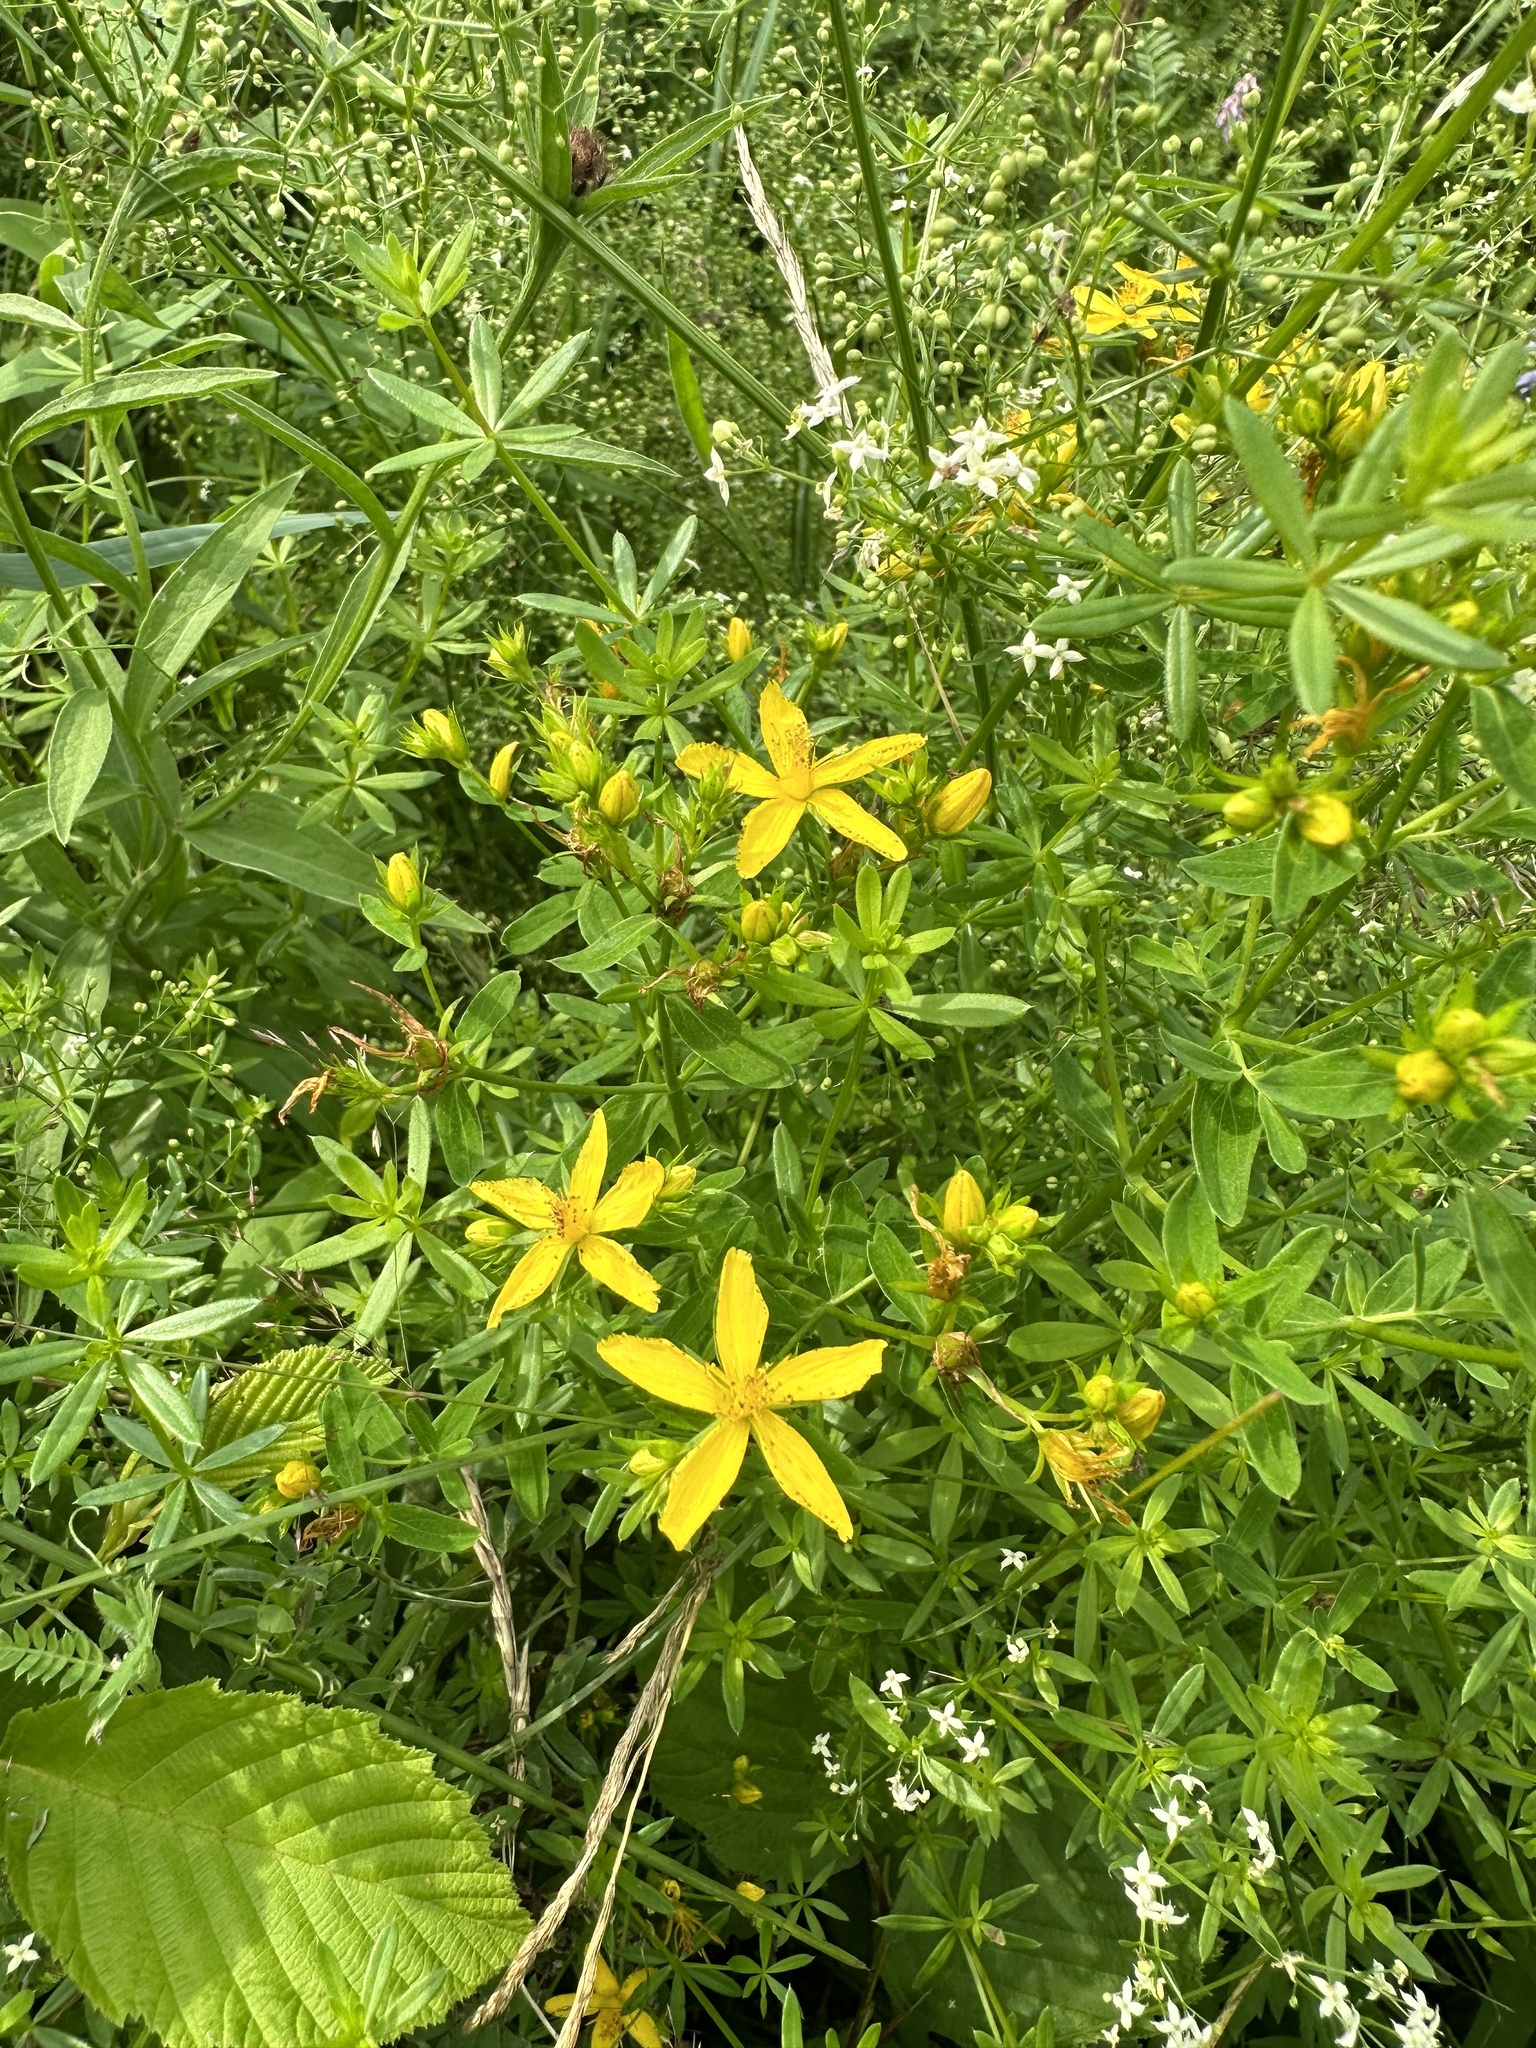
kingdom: Plantae
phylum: Tracheophyta
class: Magnoliopsida
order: Malpighiales
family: Hypericaceae
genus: Hypericum
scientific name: Hypericum perforatum
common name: Common st. johnswort
